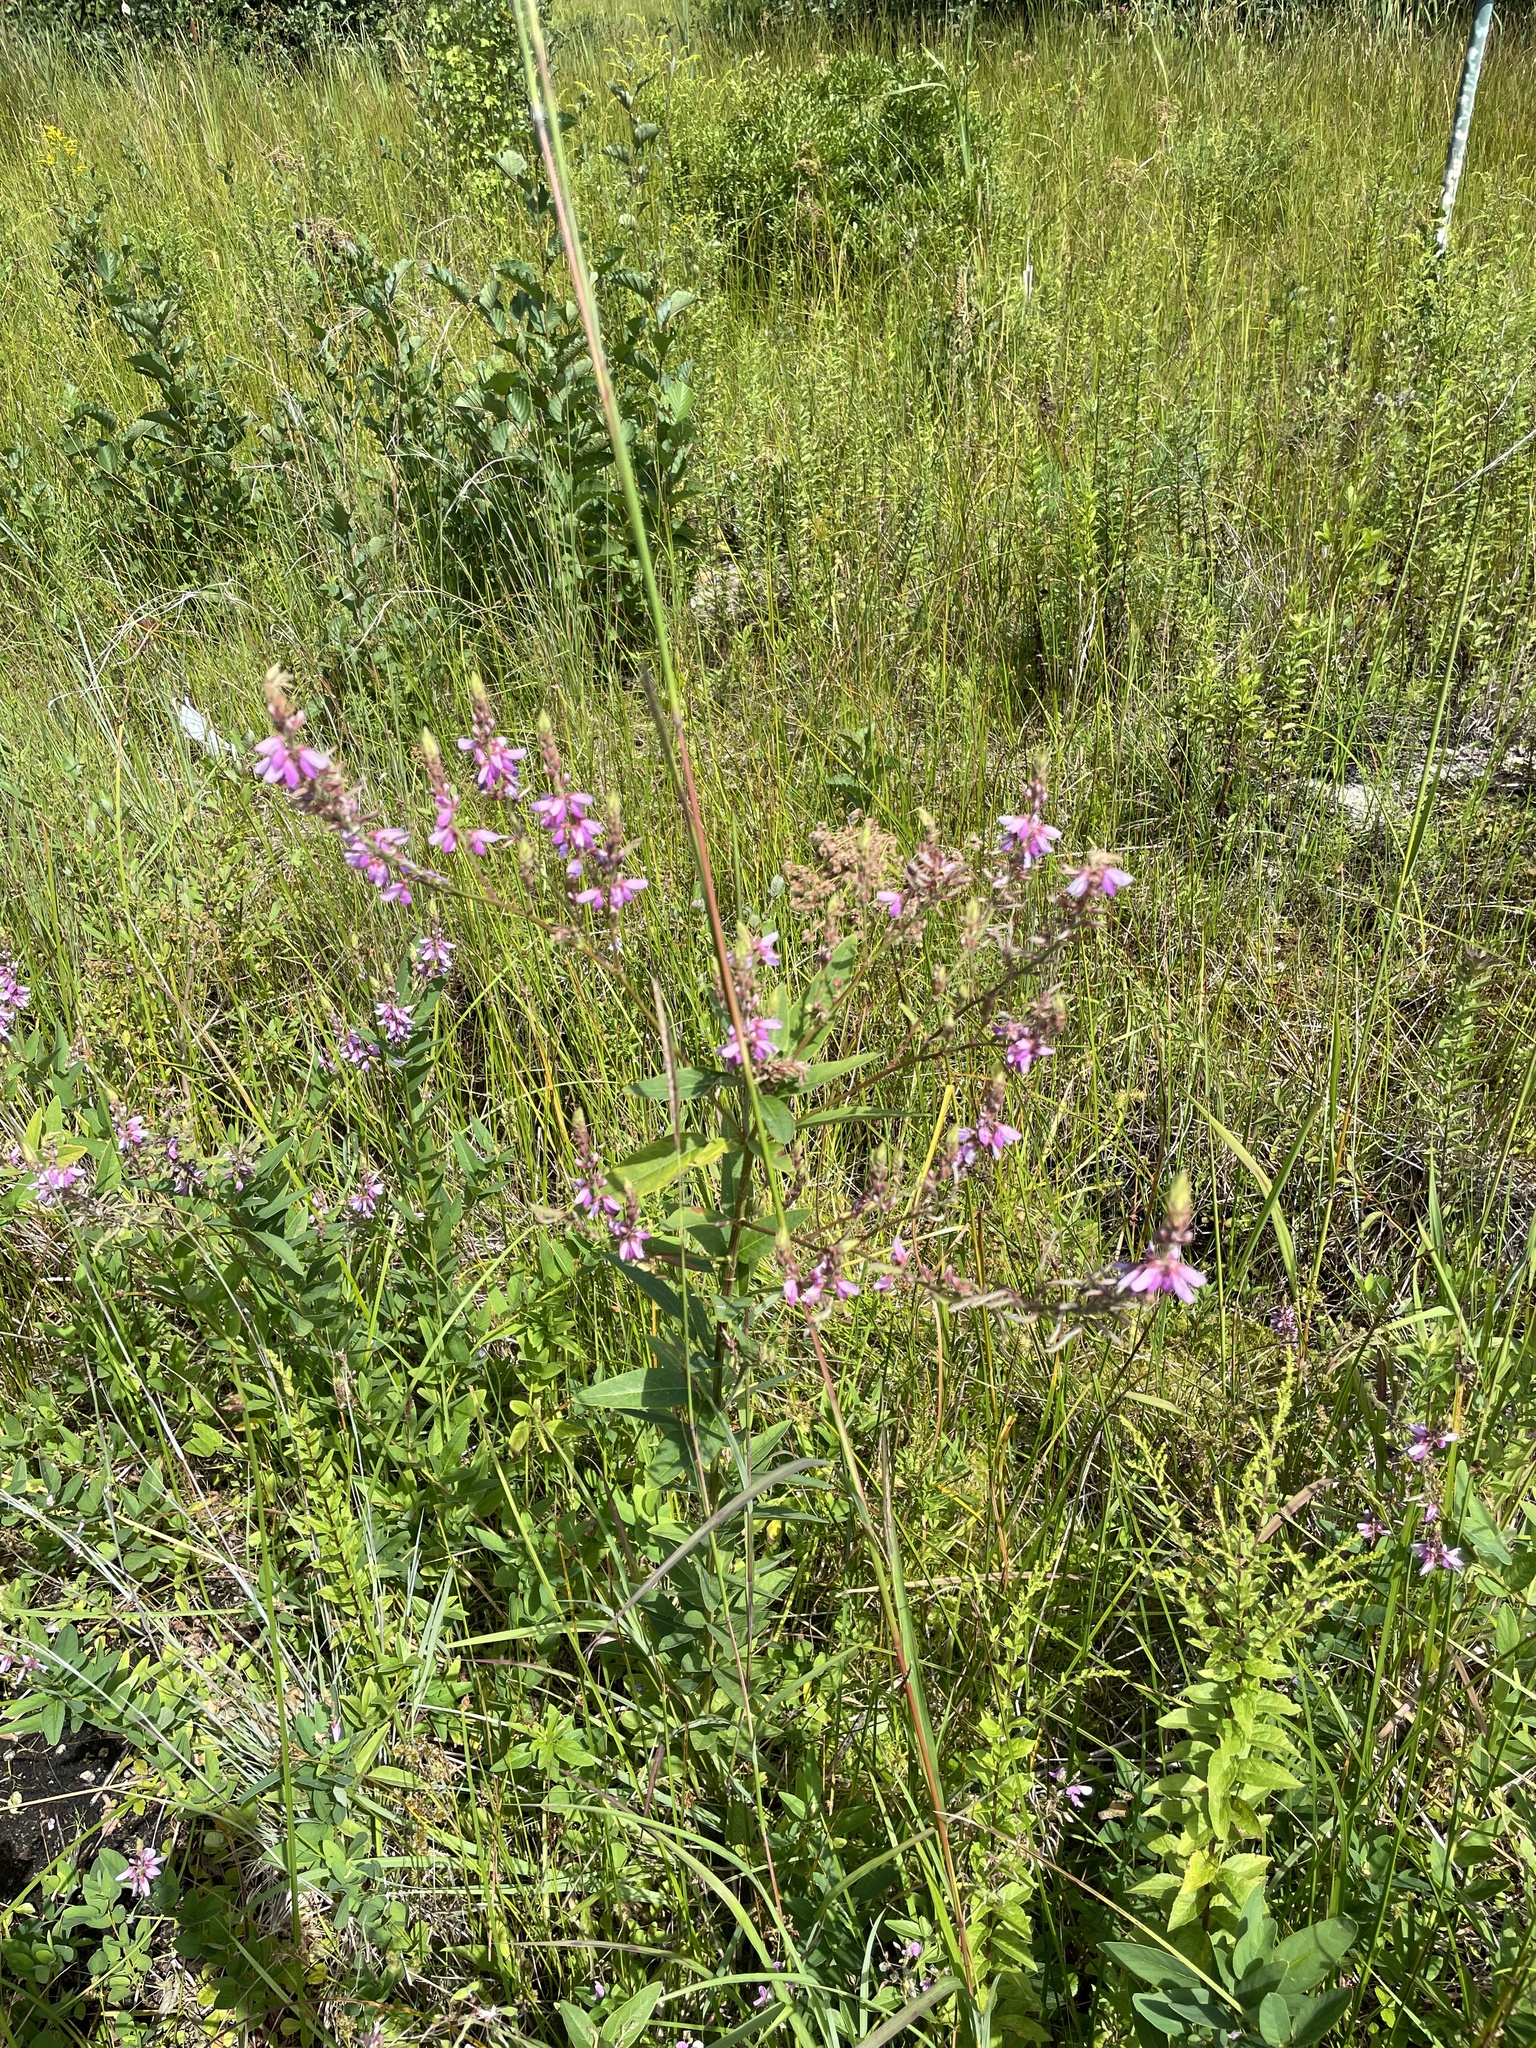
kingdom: Plantae
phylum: Tracheophyta
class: Magnoliopsida
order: Fabales
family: Fabaceae
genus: Desmodium
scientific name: Desmodium canadense
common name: Canada tick-trefoil
